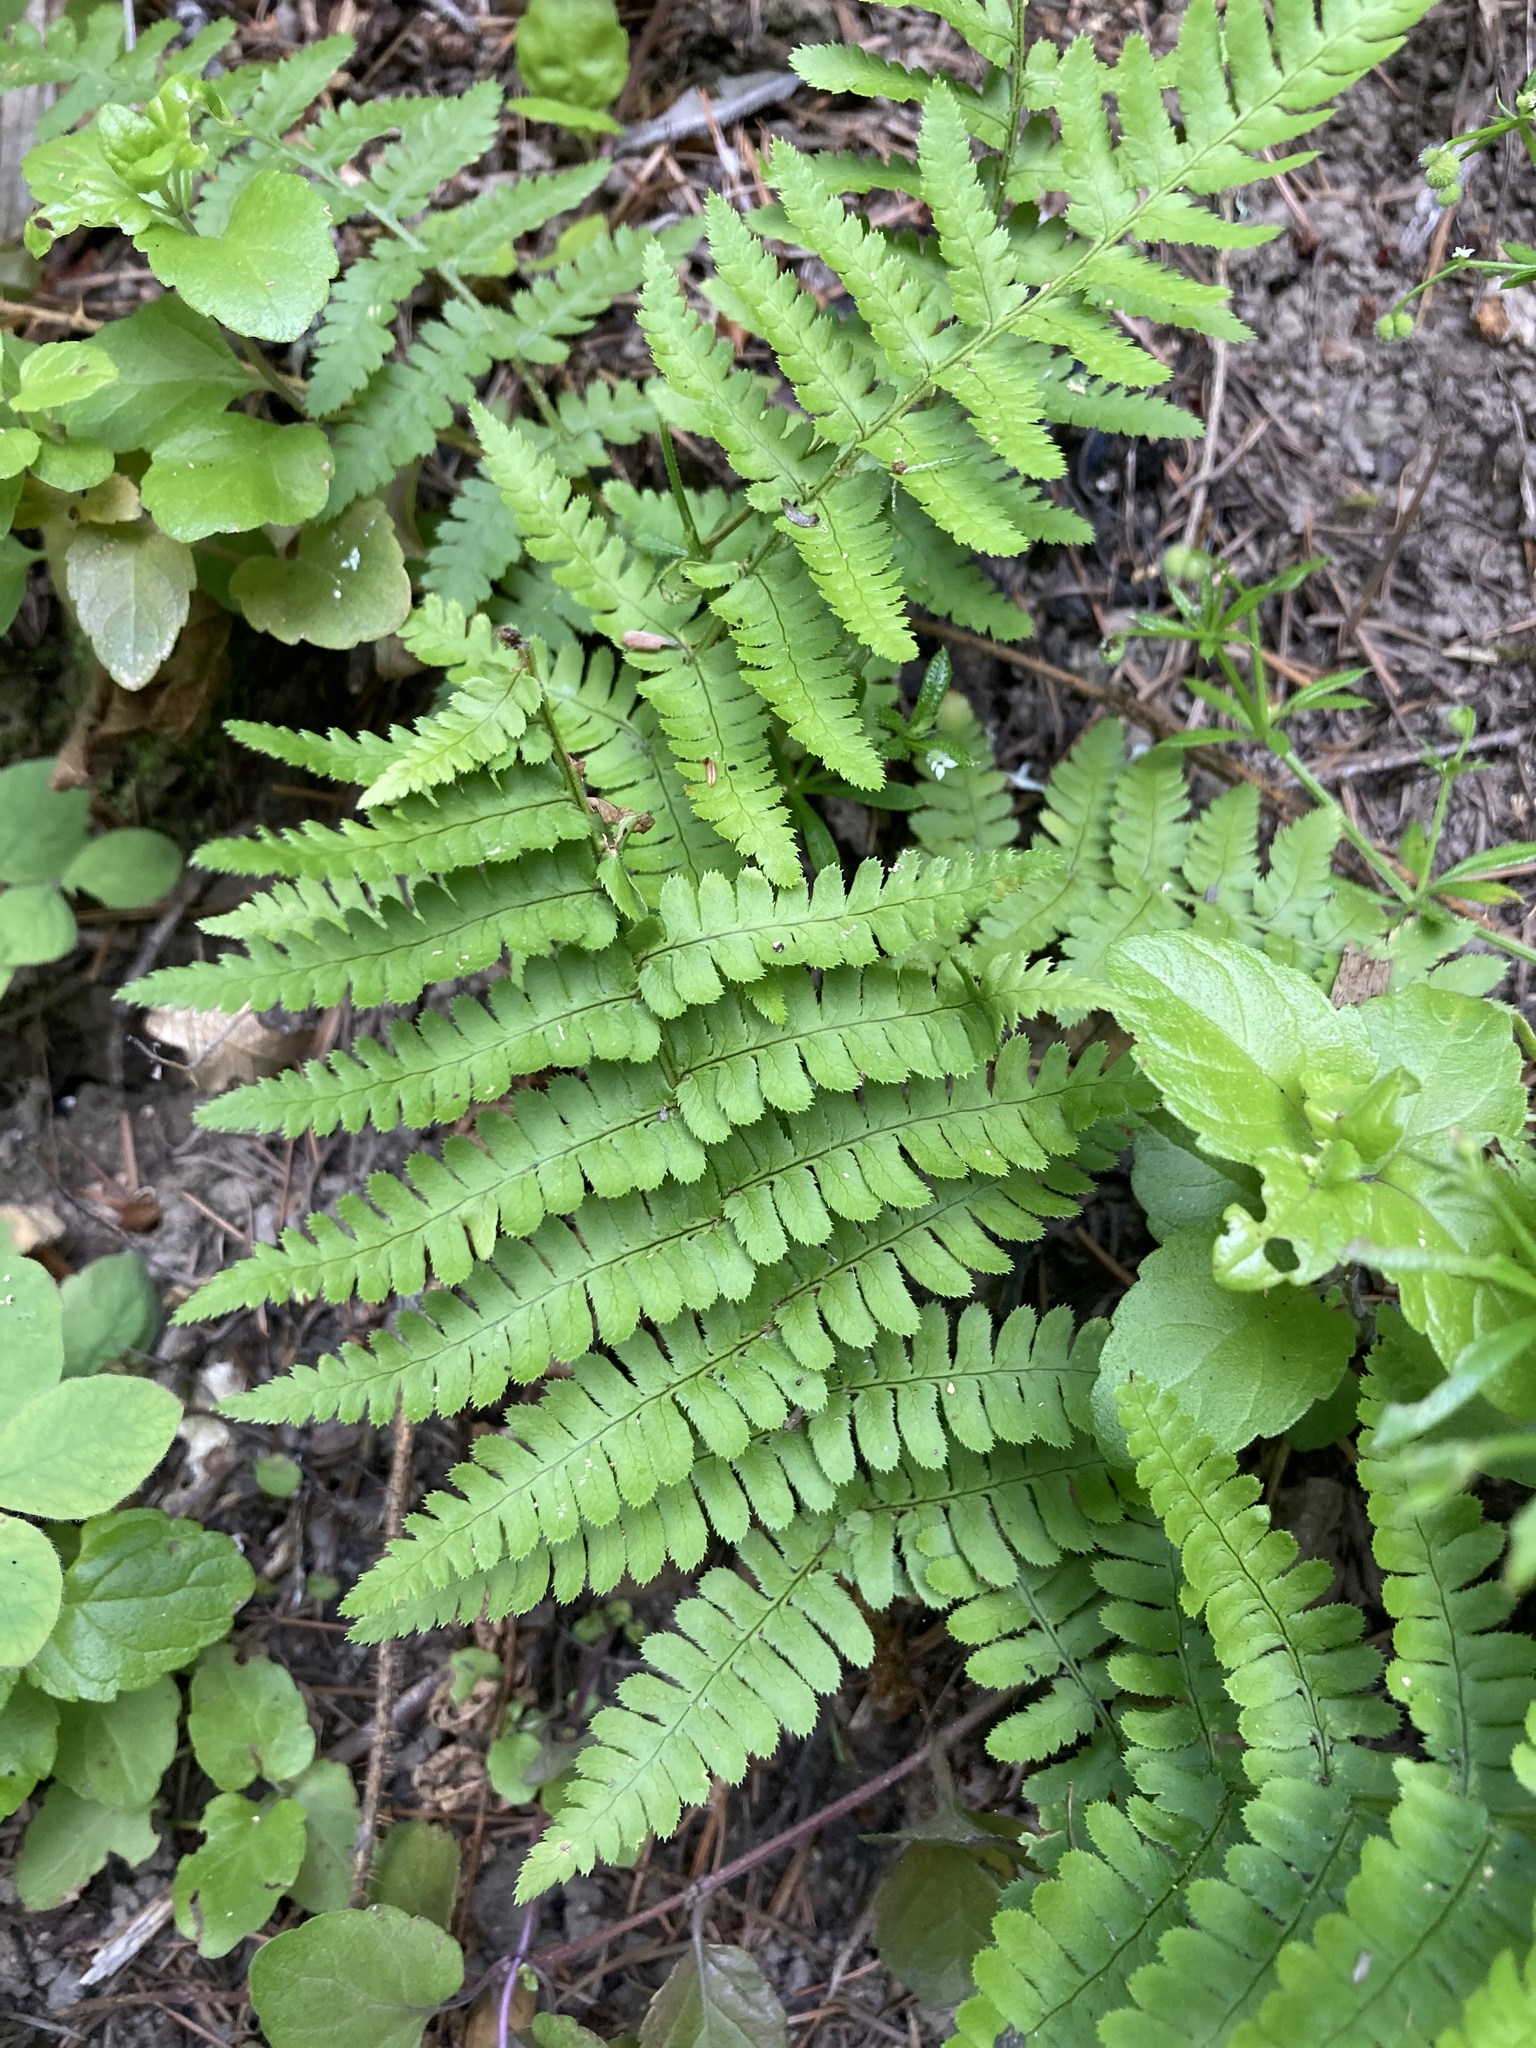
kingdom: Plantae
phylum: Tracheophyta
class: Polypodiopsida
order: Polypodiales
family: Dryopteridaceae
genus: Dryopteris
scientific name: Dryopteris arguta
